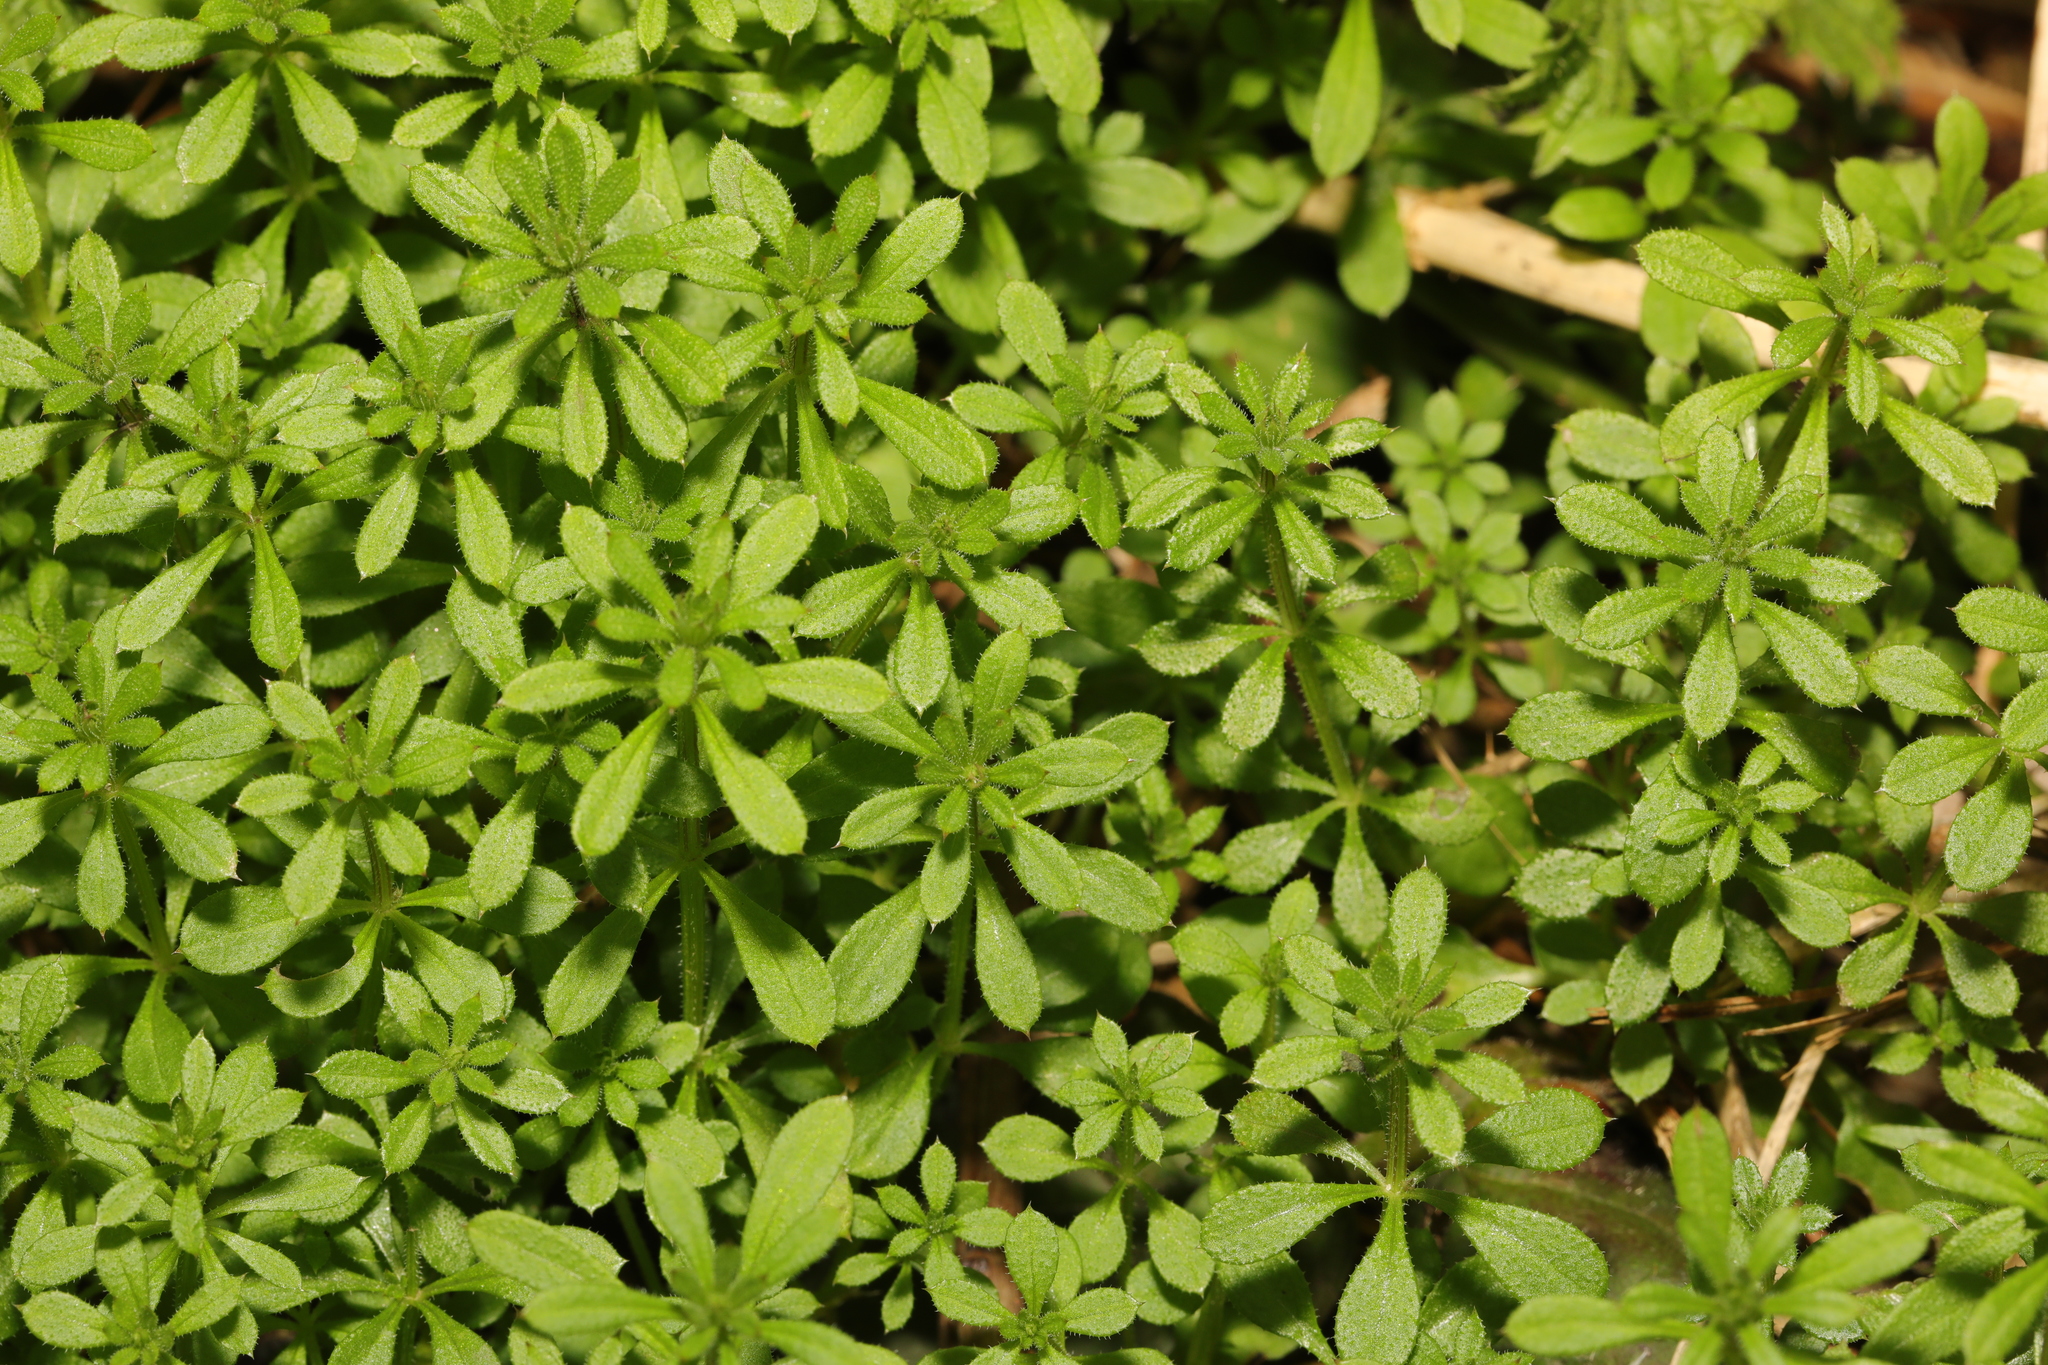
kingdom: Plantae
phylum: Tracheophyta
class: Magnoliopsida
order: Gentianales
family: Rubiaceae
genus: Galium
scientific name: Galium aparine
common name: Cleavers
